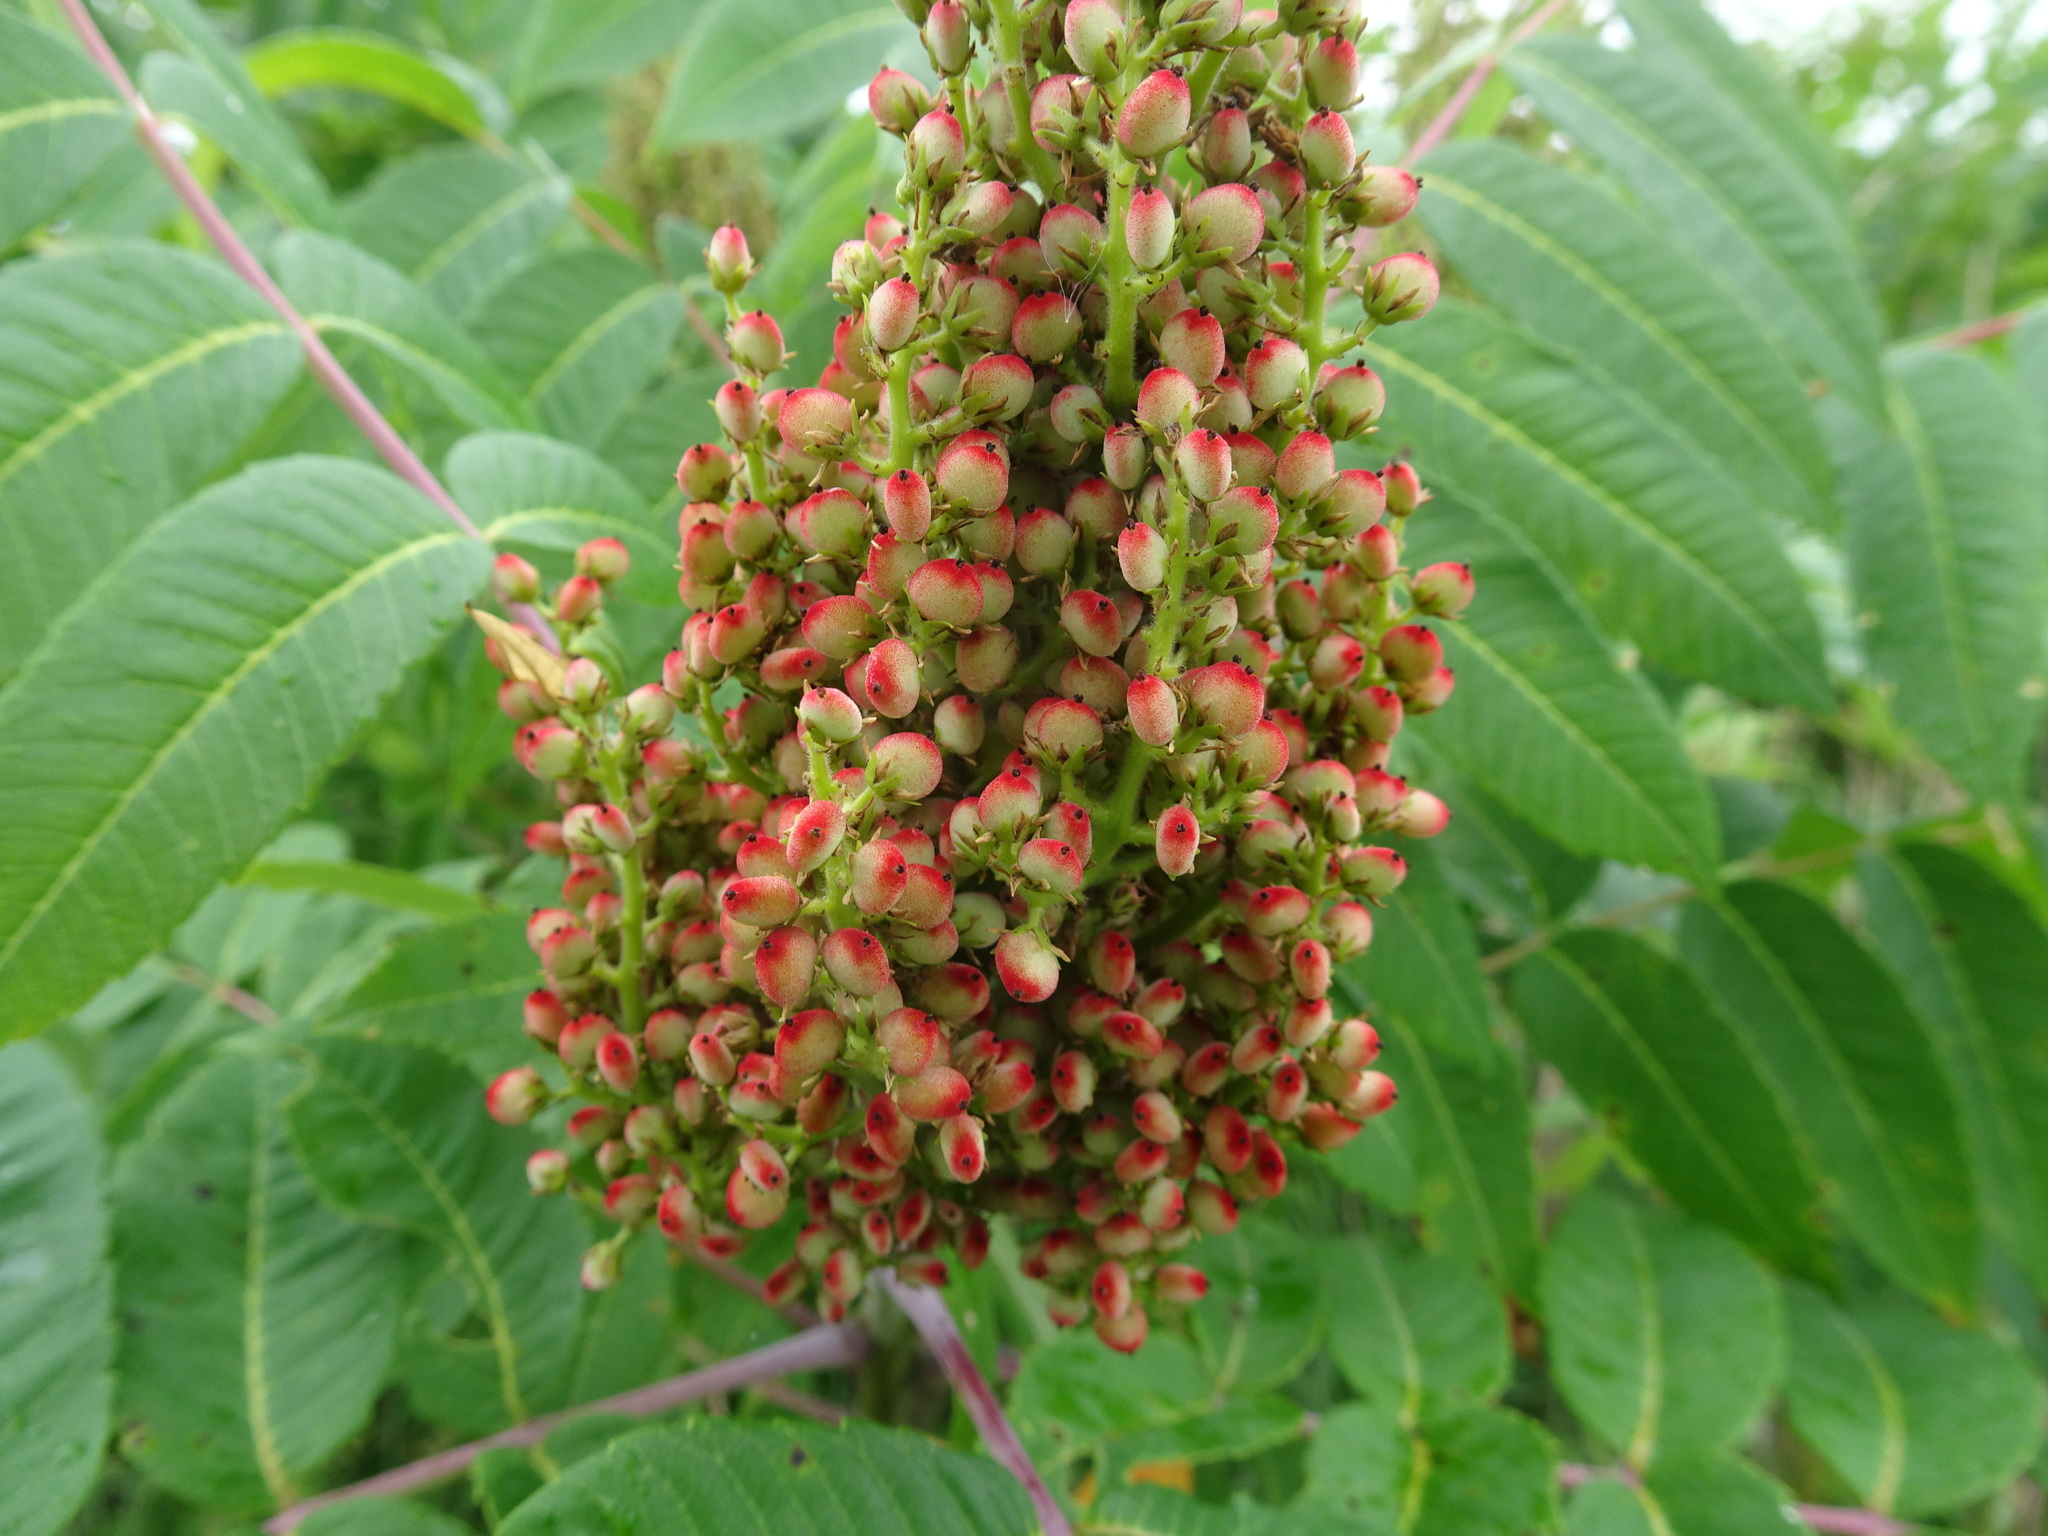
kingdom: Plantae
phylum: Tracheophyta
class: Magnoliopsida
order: Sapindales
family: Anacardiaceae
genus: Rhus
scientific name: Rhus glabra
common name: Scarlet sumac
